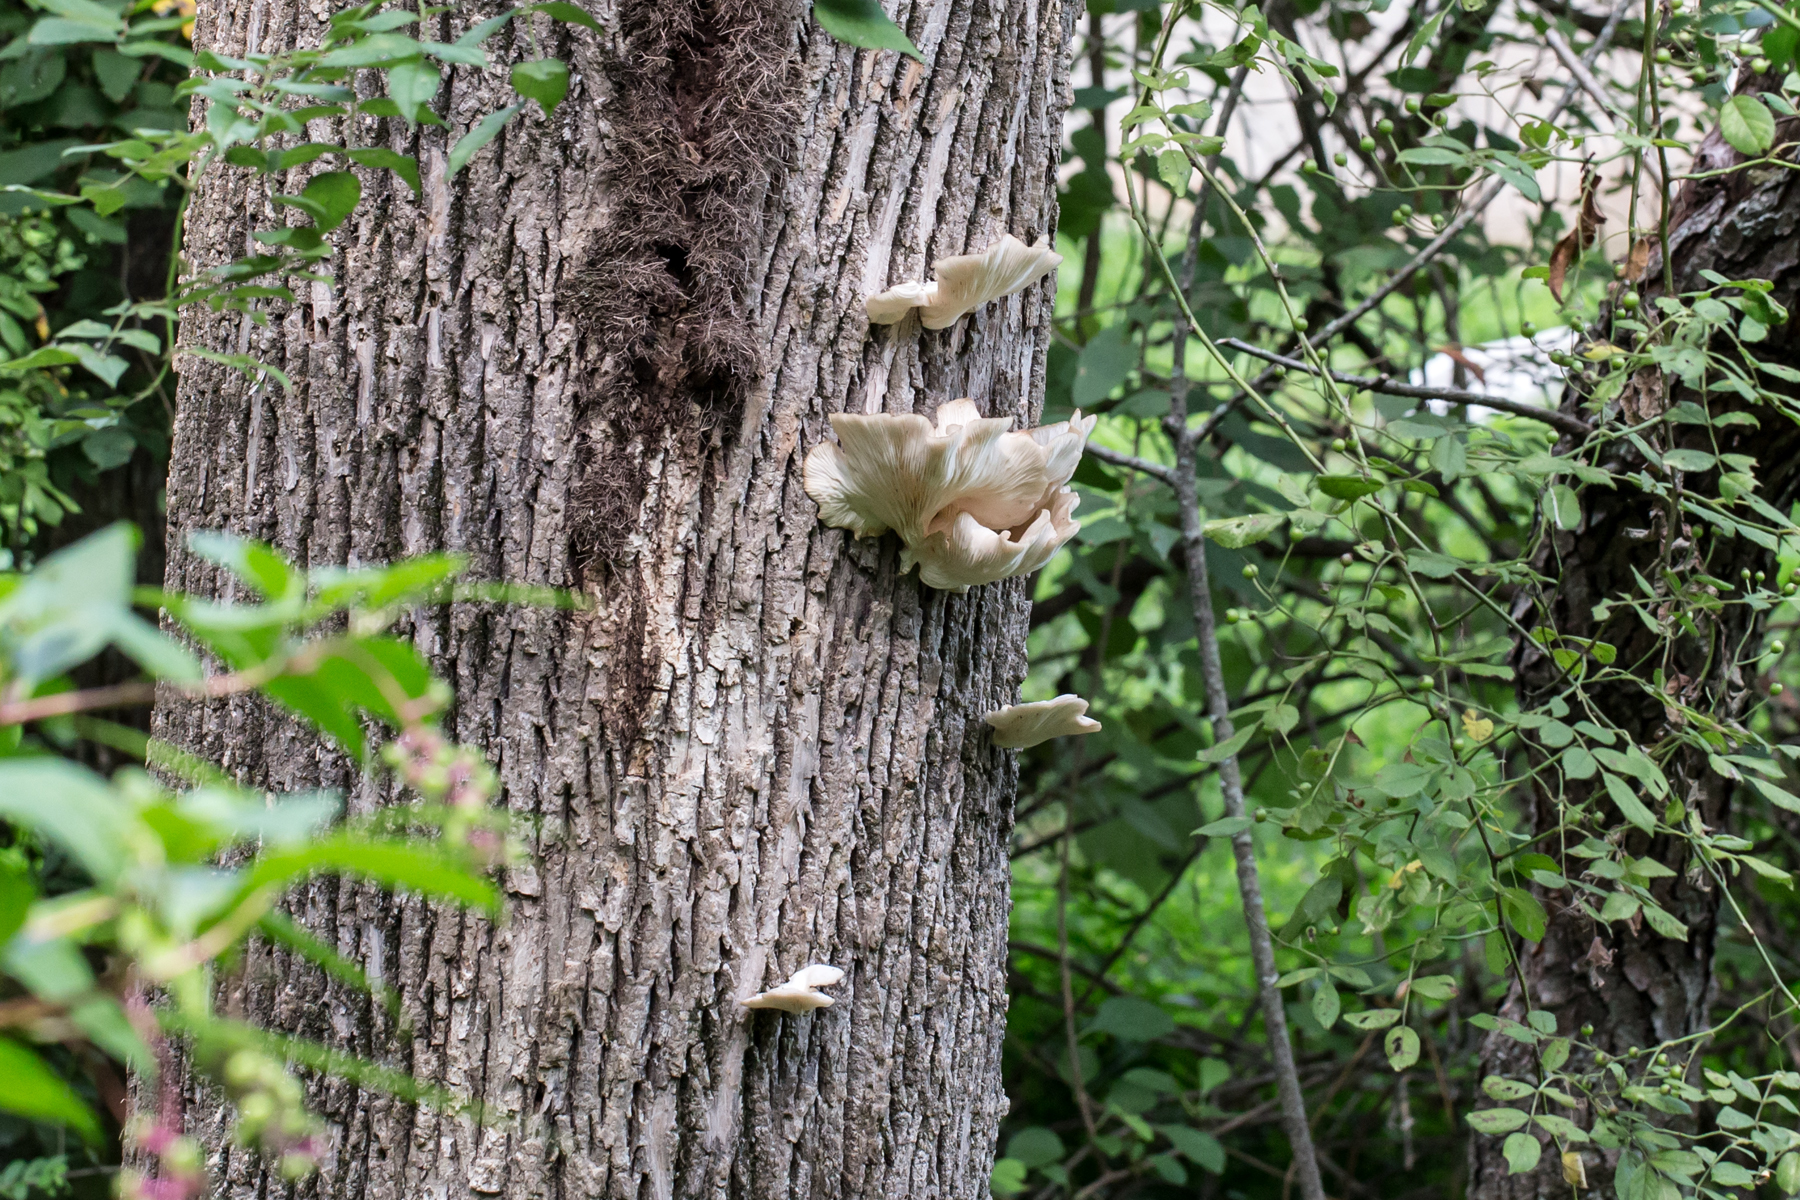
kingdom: Fungi
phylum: Basidiomycota
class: Agaricomycetes
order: Agaricales
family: Pleurotaceae
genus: Pleurotus
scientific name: Pleurotus pulmonarius
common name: Pale oyster
